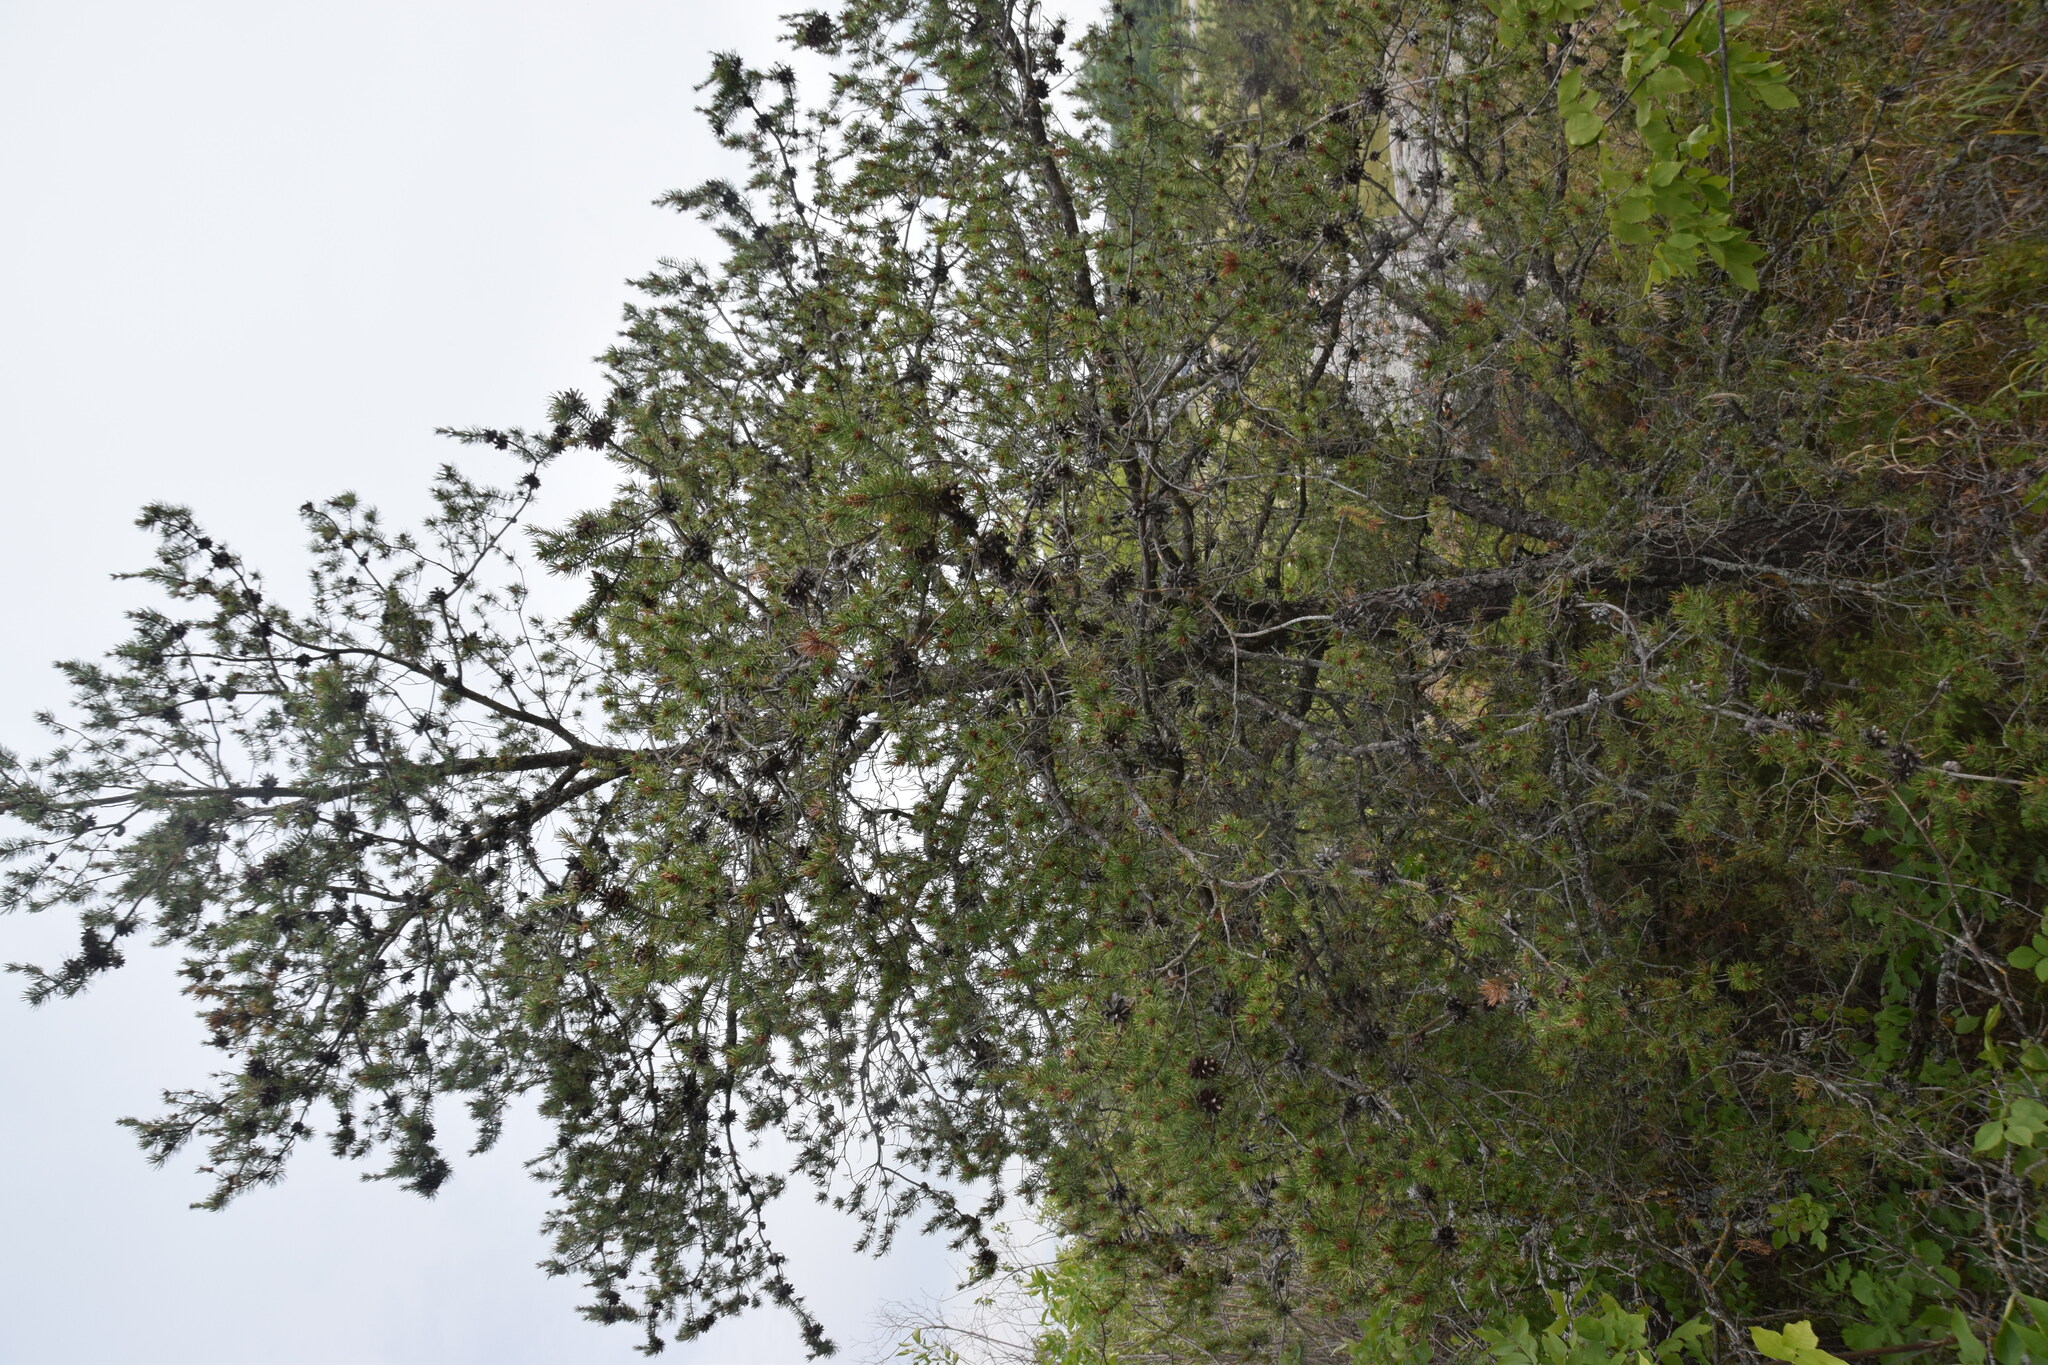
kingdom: Plantae
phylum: Tracheophyta
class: Pinopsida
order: Pinales
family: Pinaceae
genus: Pinus
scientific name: Pinus banksiana
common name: Jack pine
